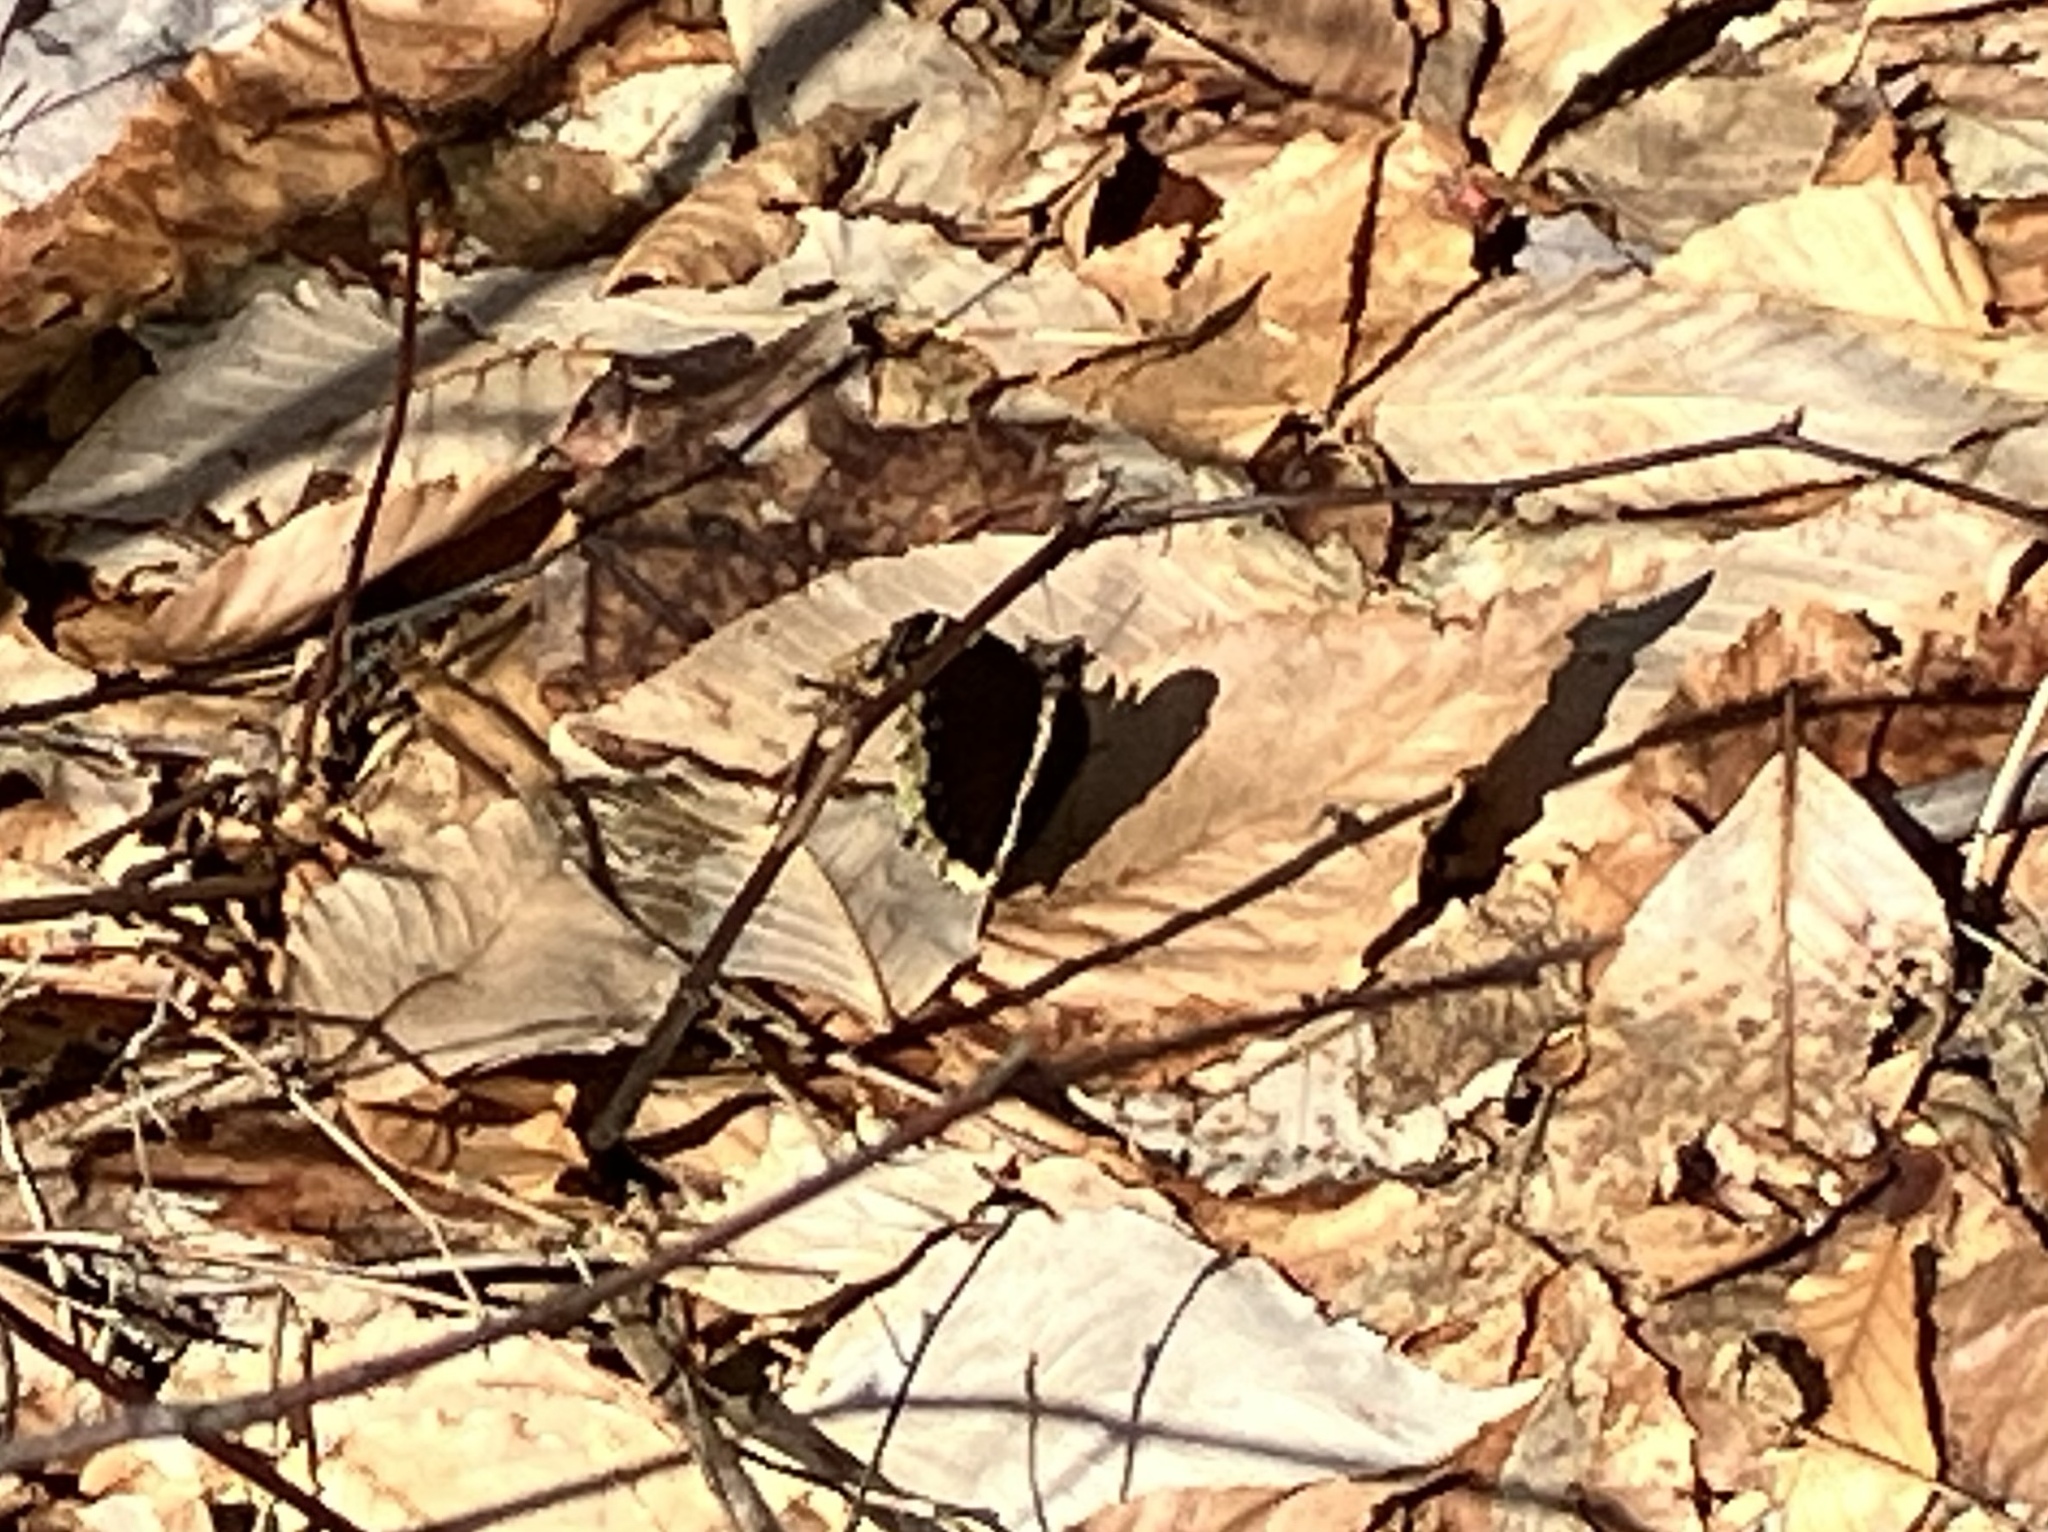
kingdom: Animalia
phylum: Arthropoda
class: Insecta
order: Lepidoptera
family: Nymphalidae
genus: Nymphalis
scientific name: Nymphalis antiopa
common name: Camberwell beauty
